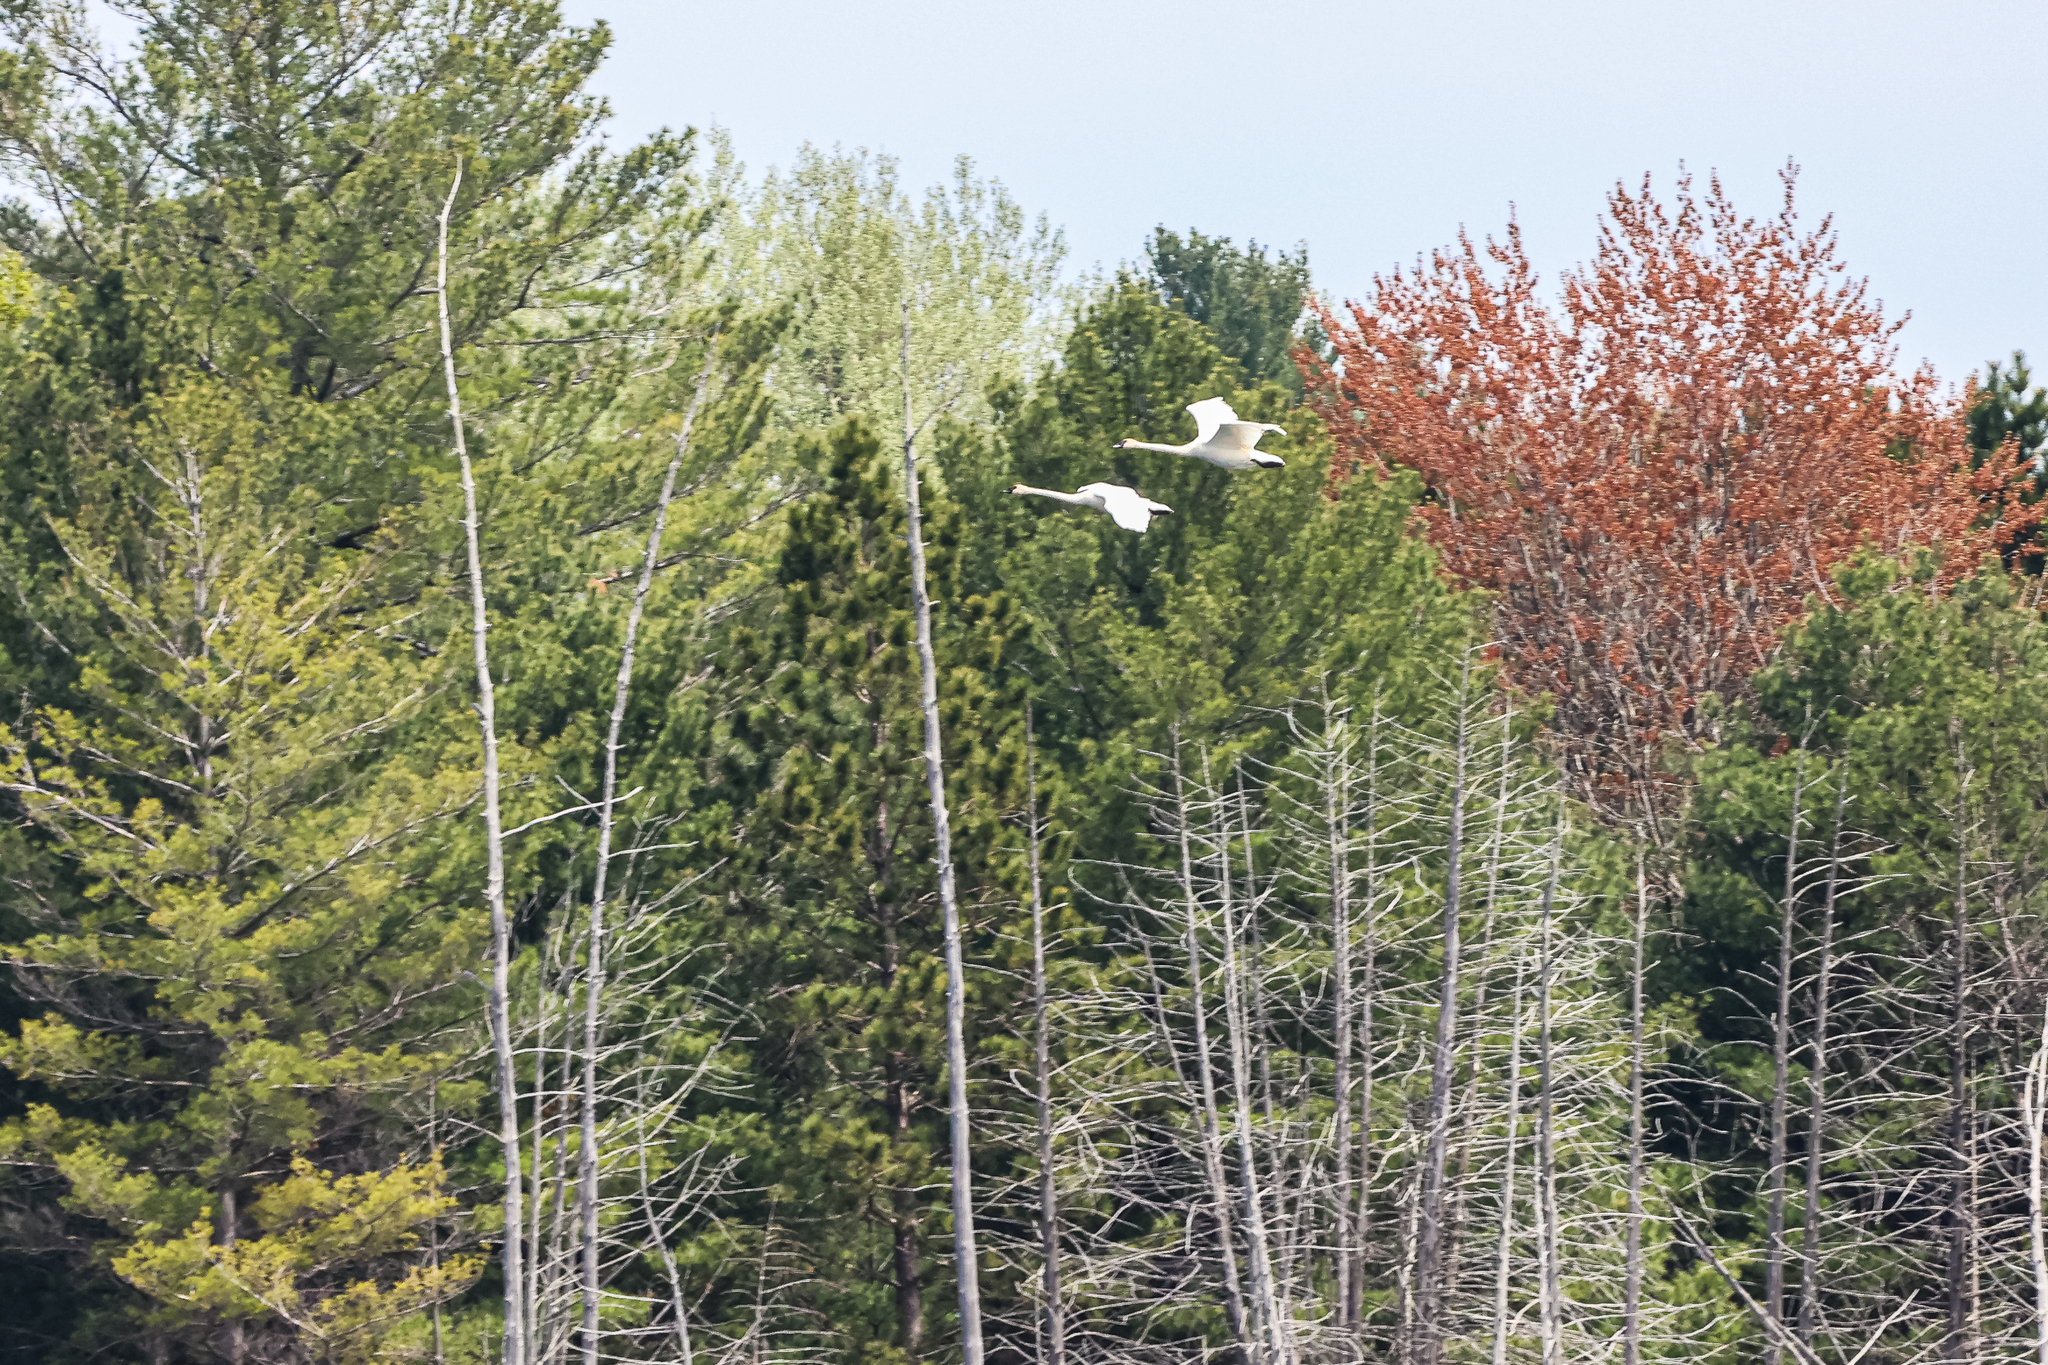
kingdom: Animalia
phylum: Chordata
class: Aves
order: Anseriformes
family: Anatidae
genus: Cygnus
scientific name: Cygnus buccinator
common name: Trumpeter swan
